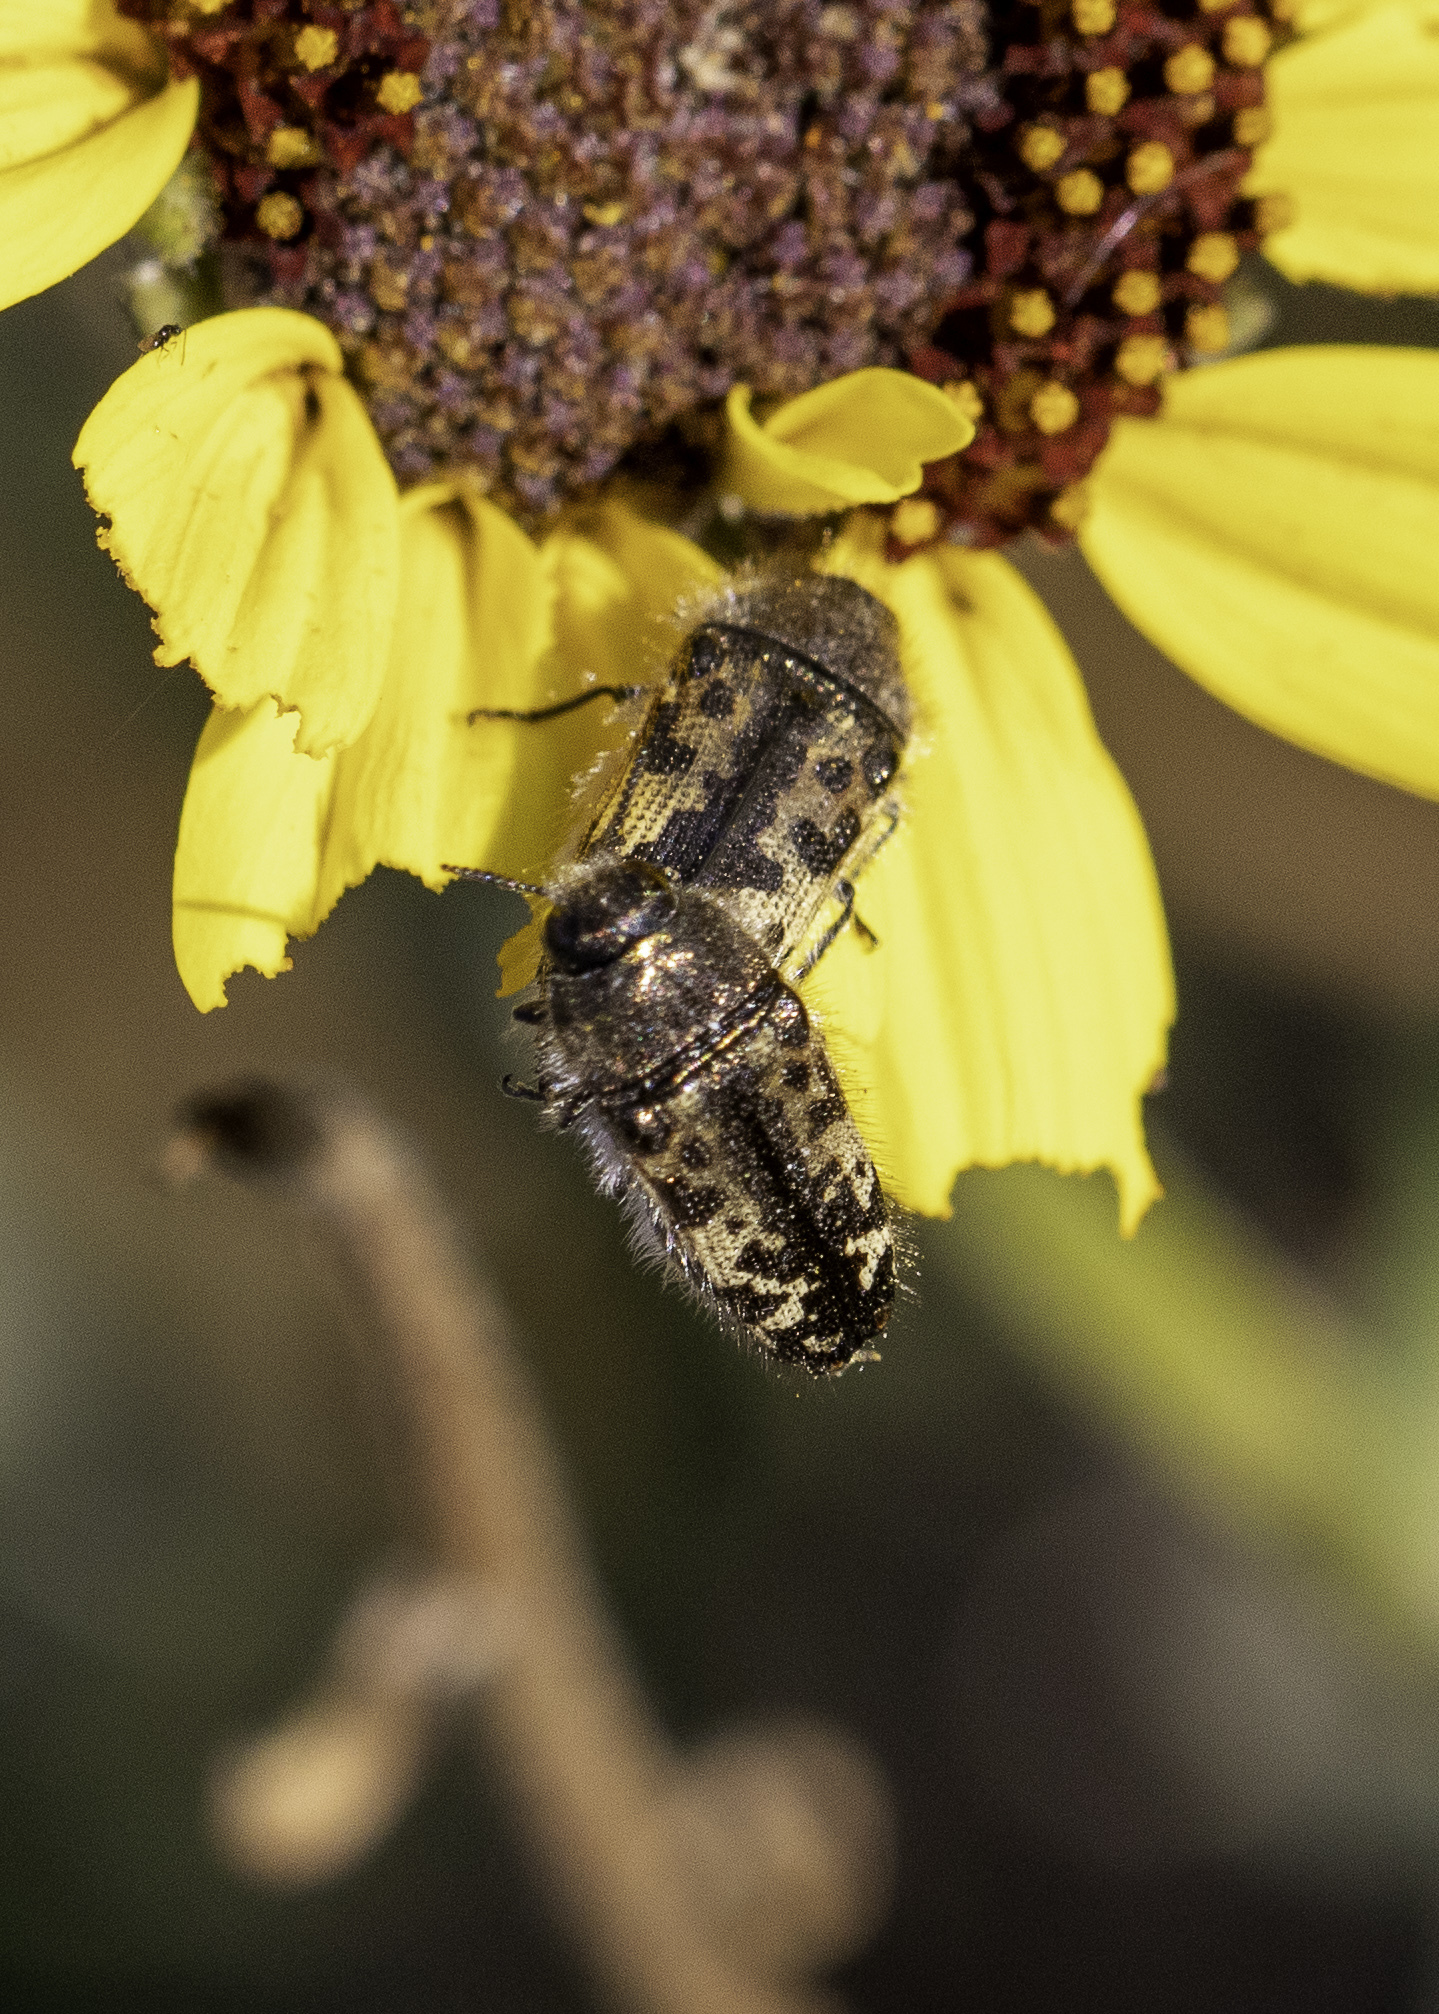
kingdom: Animalia
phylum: Arthropoda
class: Insecta
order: Coleoptera
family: Buprestidae
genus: Acmaeodera
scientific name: Acmaeodera hepburnii
